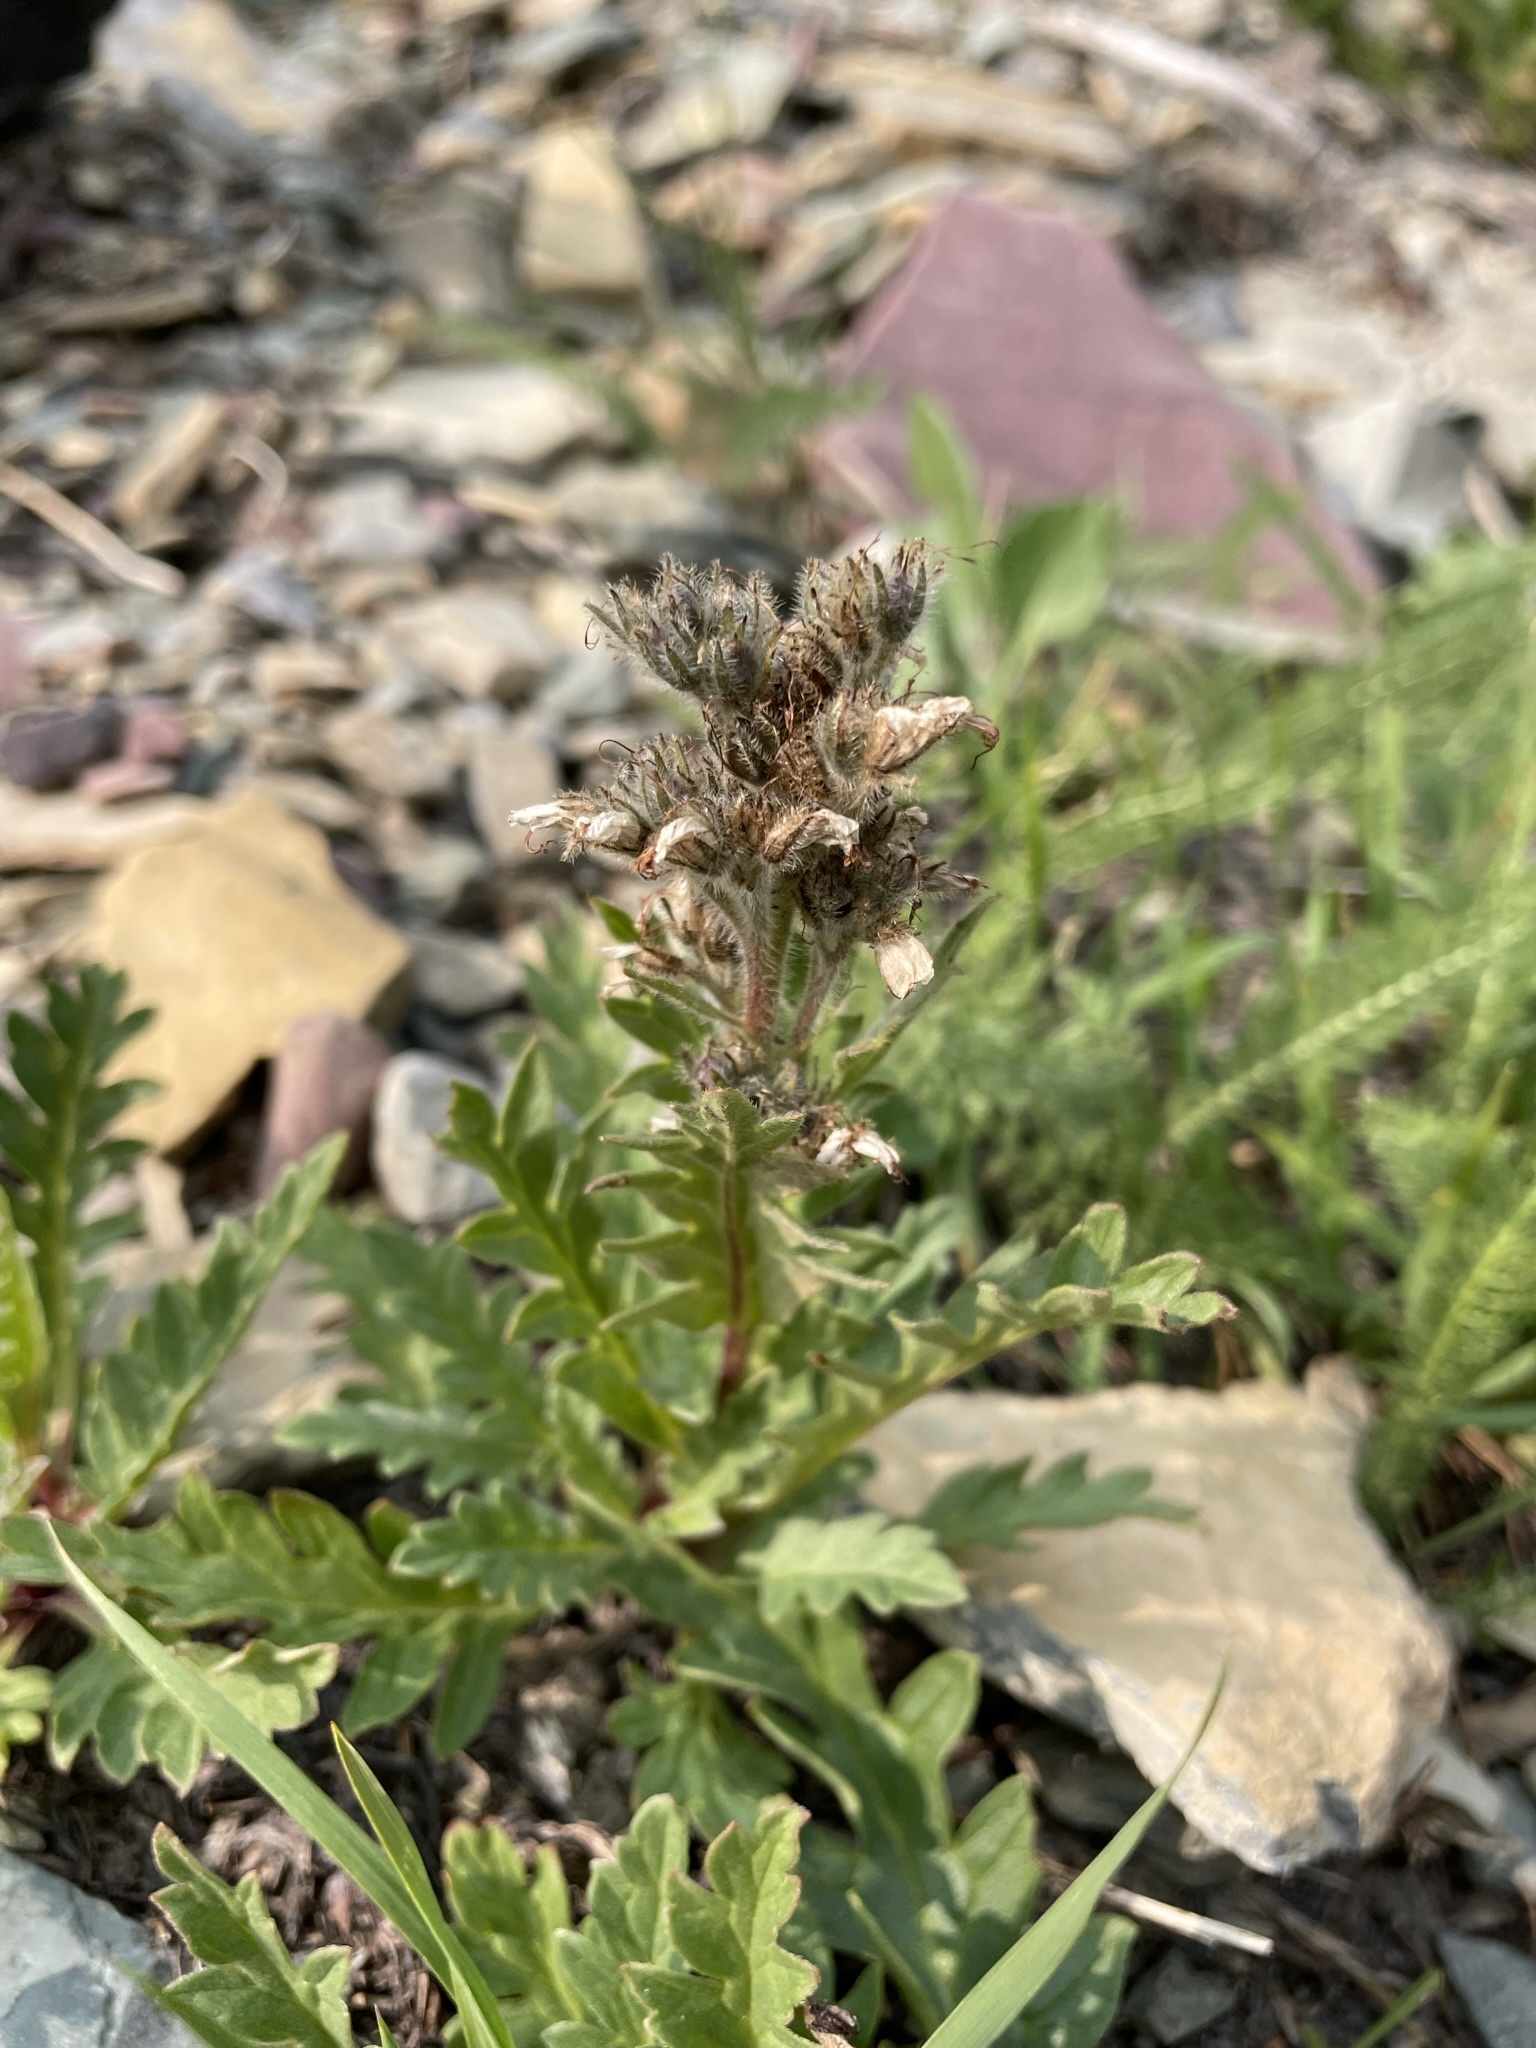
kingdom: Plantae
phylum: Tracheophyta
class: Magnoliopsida
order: Boraginales
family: Hydrophyllaceae
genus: Phacelia
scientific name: Phacelia sericea
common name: Silky phacelia
